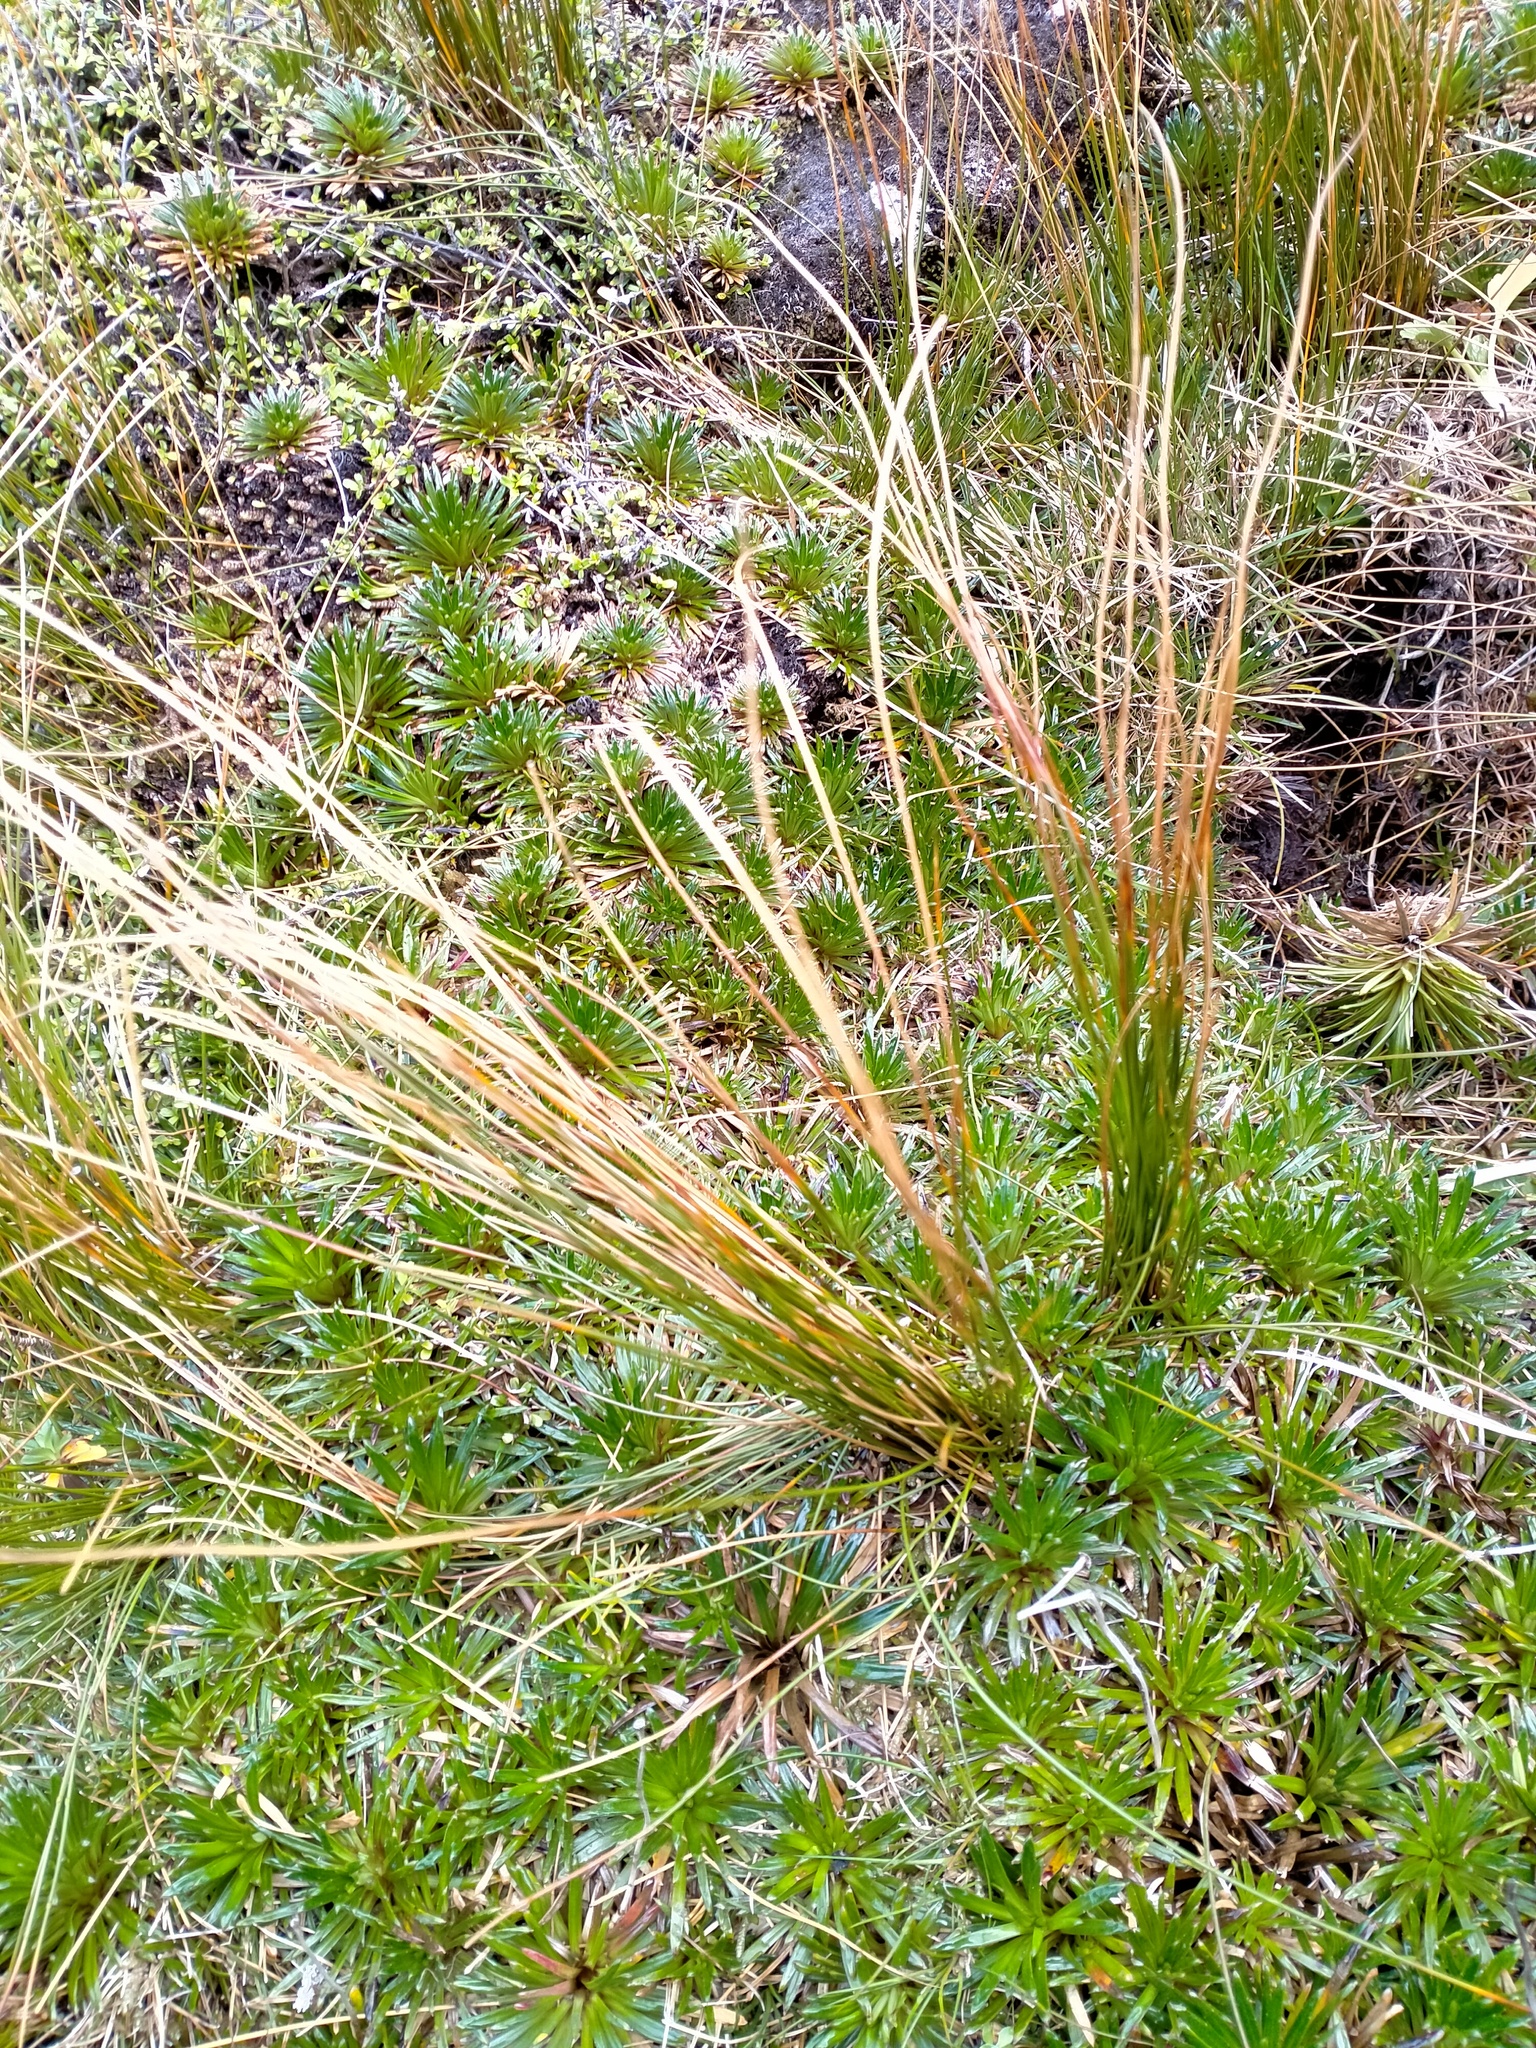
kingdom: Plantae
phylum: Tracheophyta
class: Liliopsida
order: Poales
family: Juncaceae
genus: Marsippospermum
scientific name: Marsippospermum gracile
